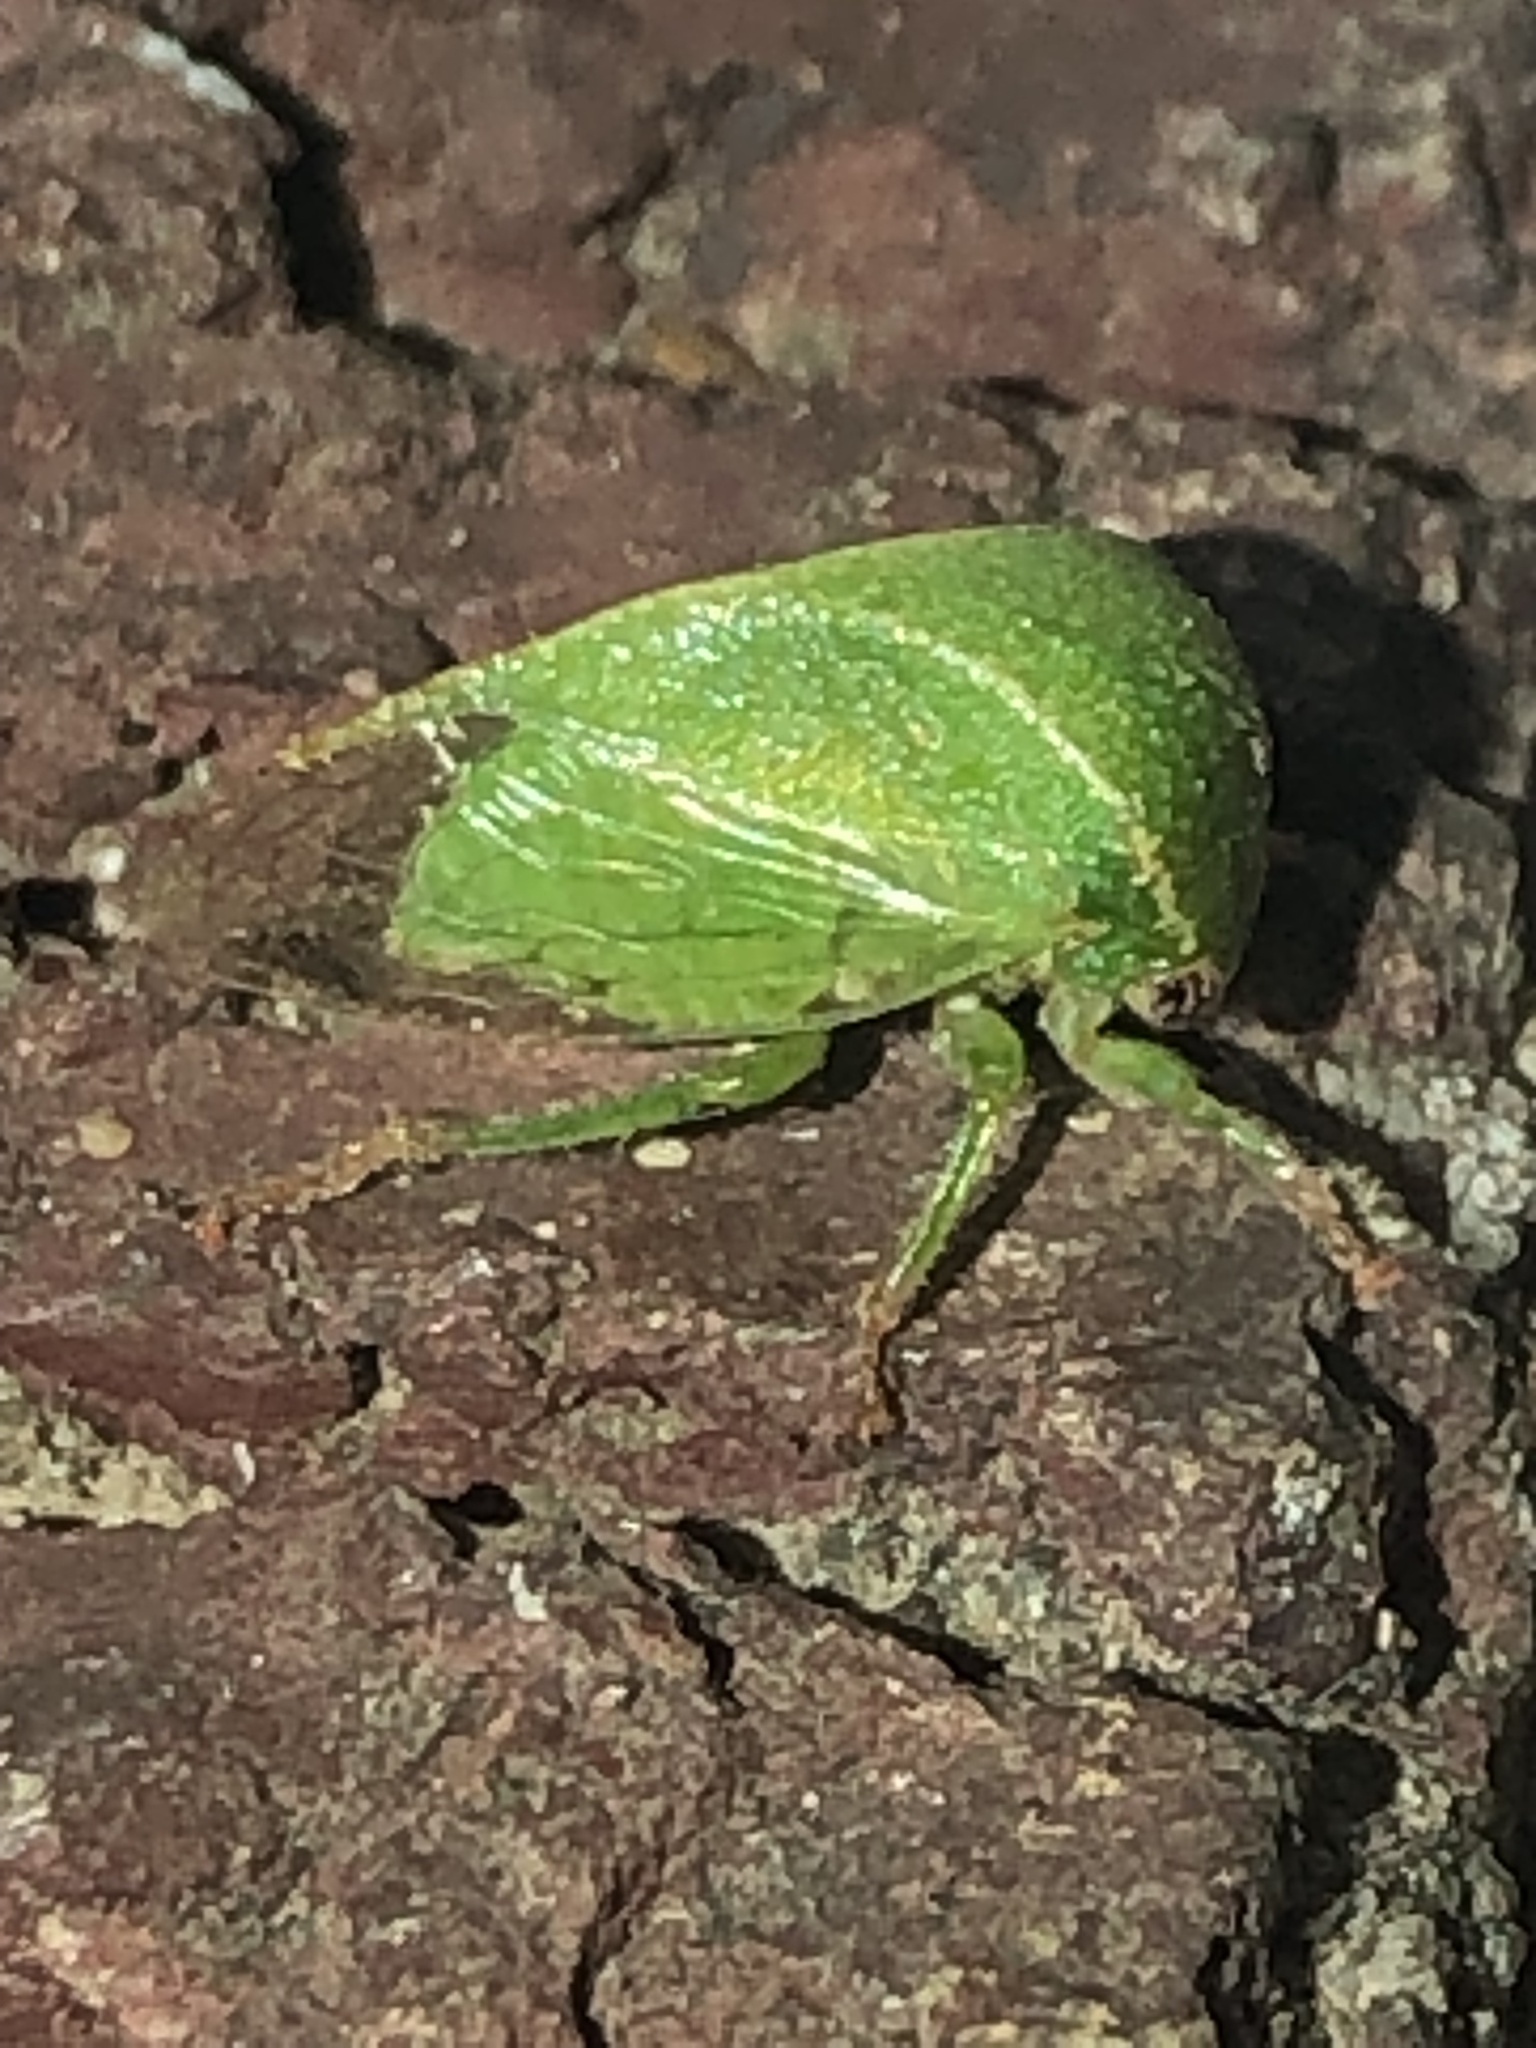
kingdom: Animalia
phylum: Arthropoda
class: Insecta
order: Hemiptera
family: Membracidae
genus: Spissistilus
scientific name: Spissistilus festina
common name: Membracid bug
